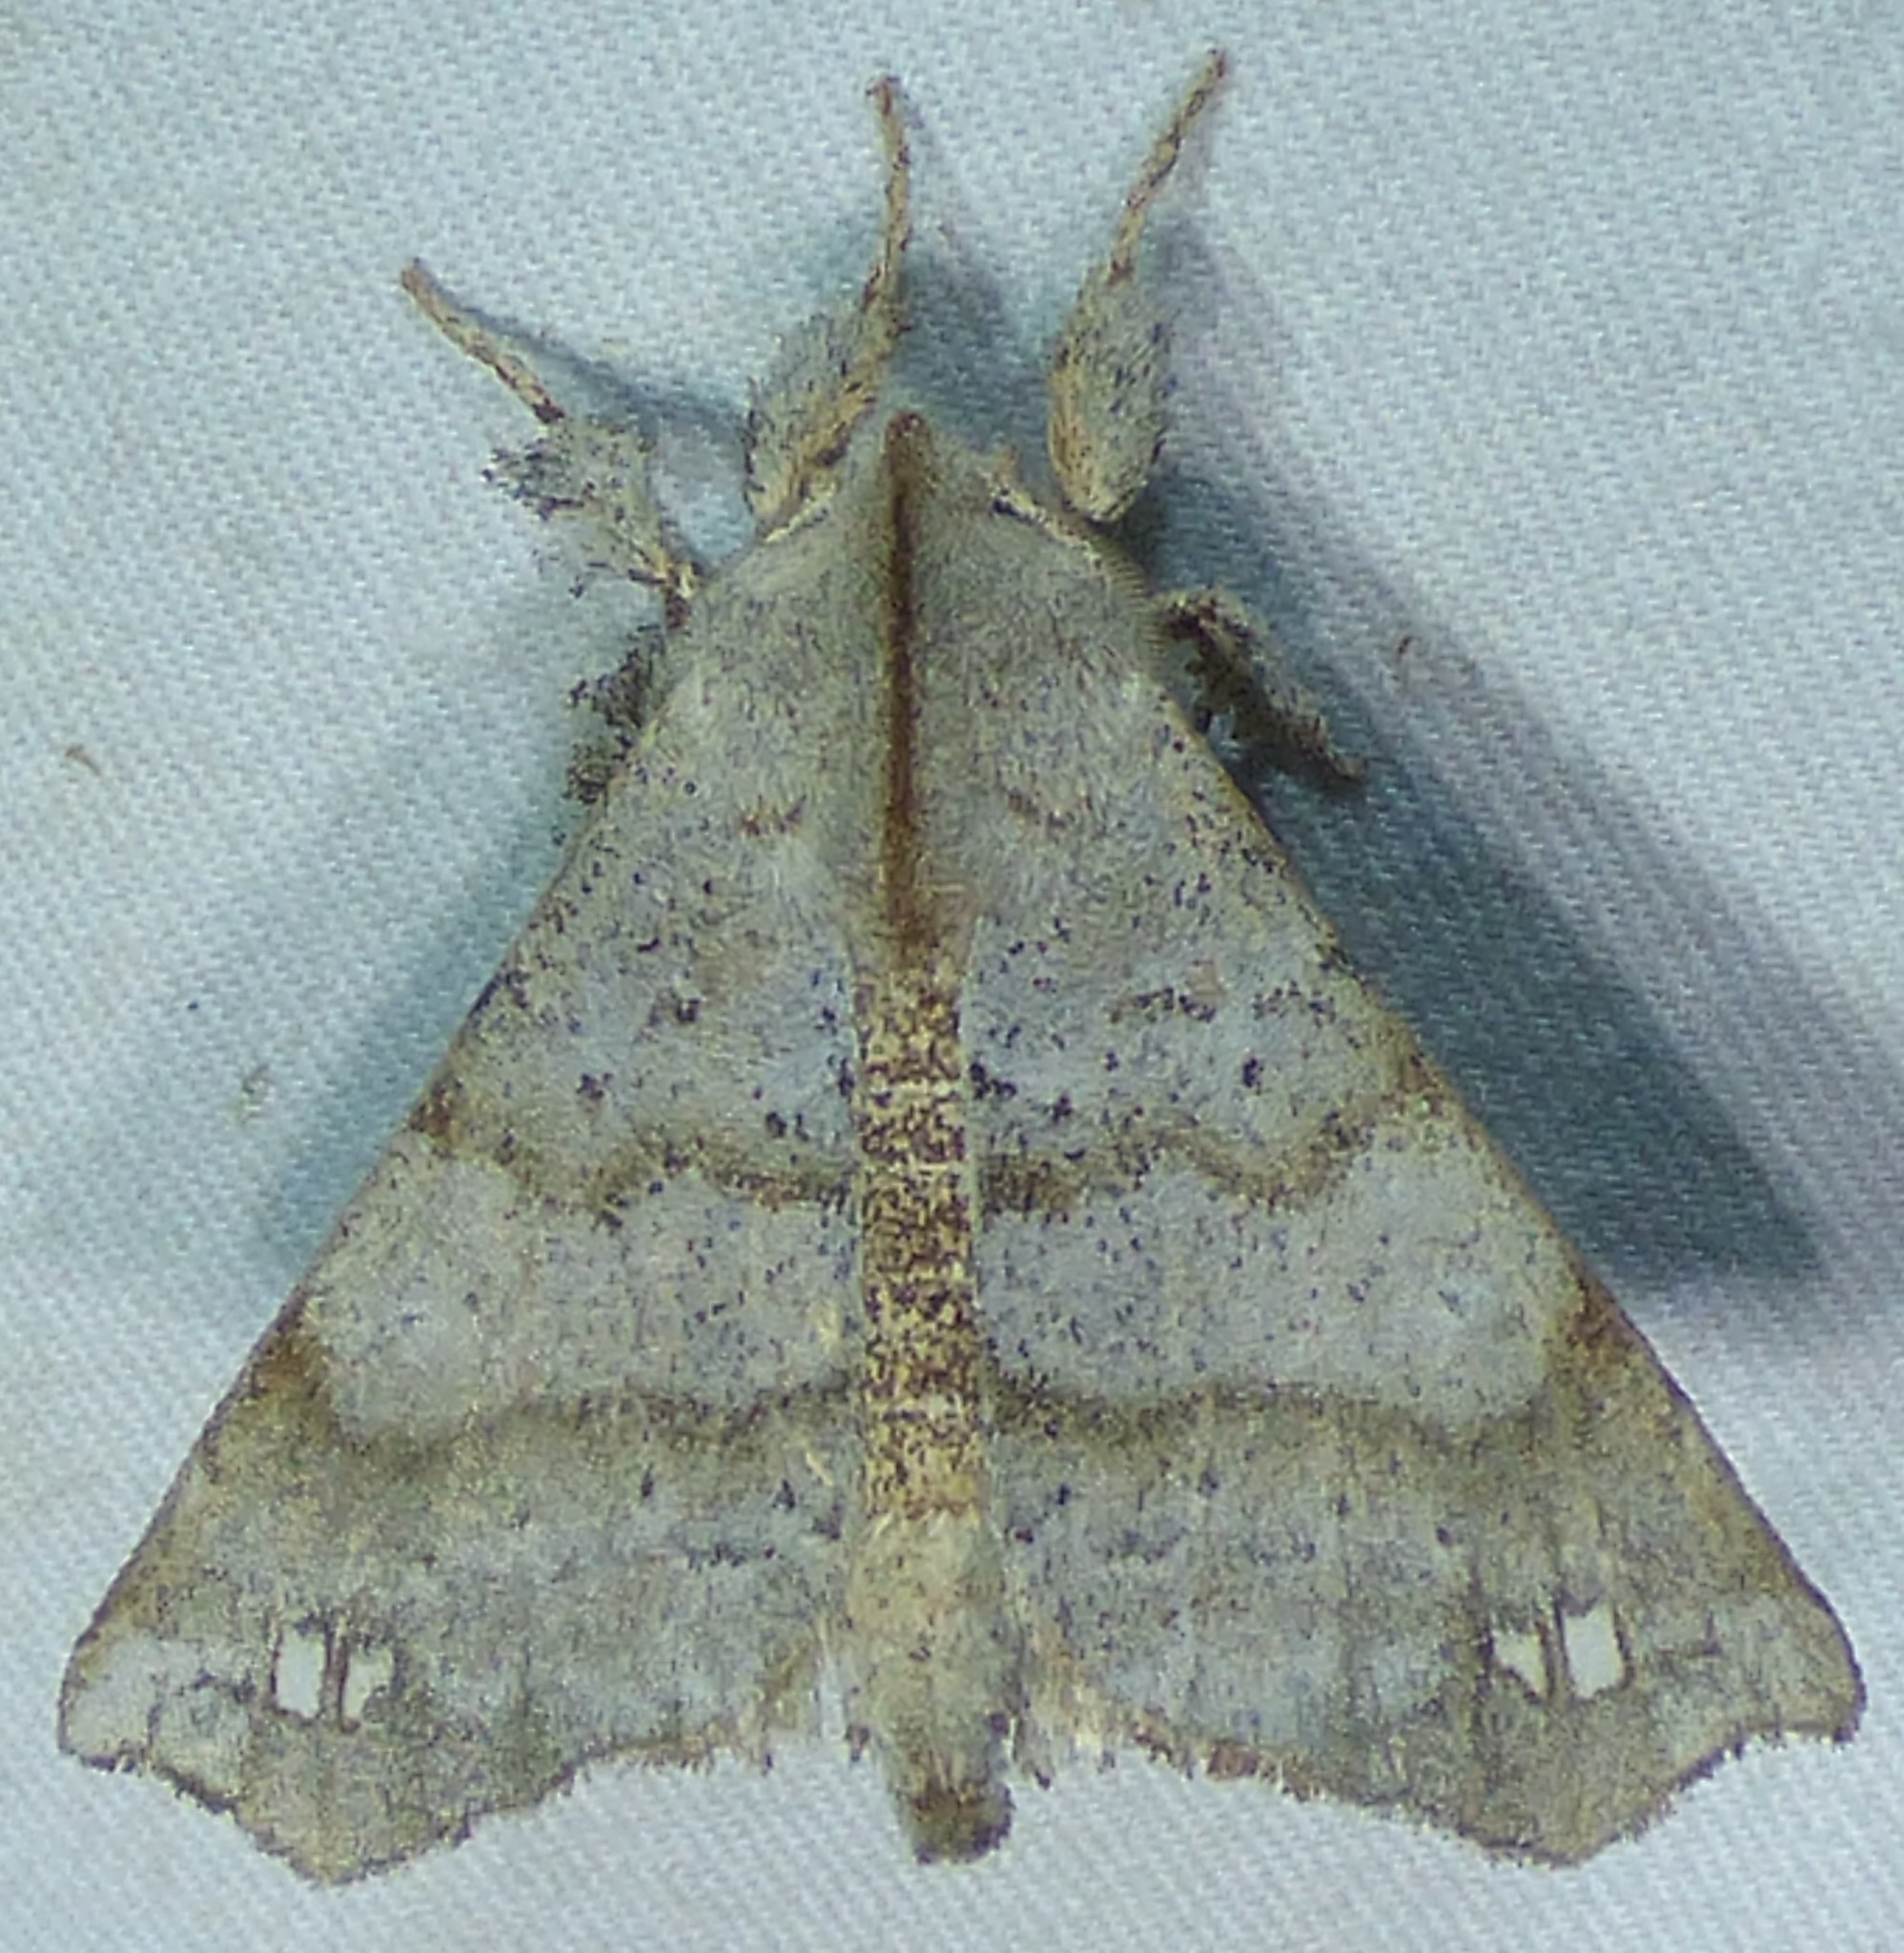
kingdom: Animalia
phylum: Arthropoda
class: Insecta
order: Lepidoptera
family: Apatelodidae
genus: Olceclostera
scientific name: Olceclostera angelica
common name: Angel moth
